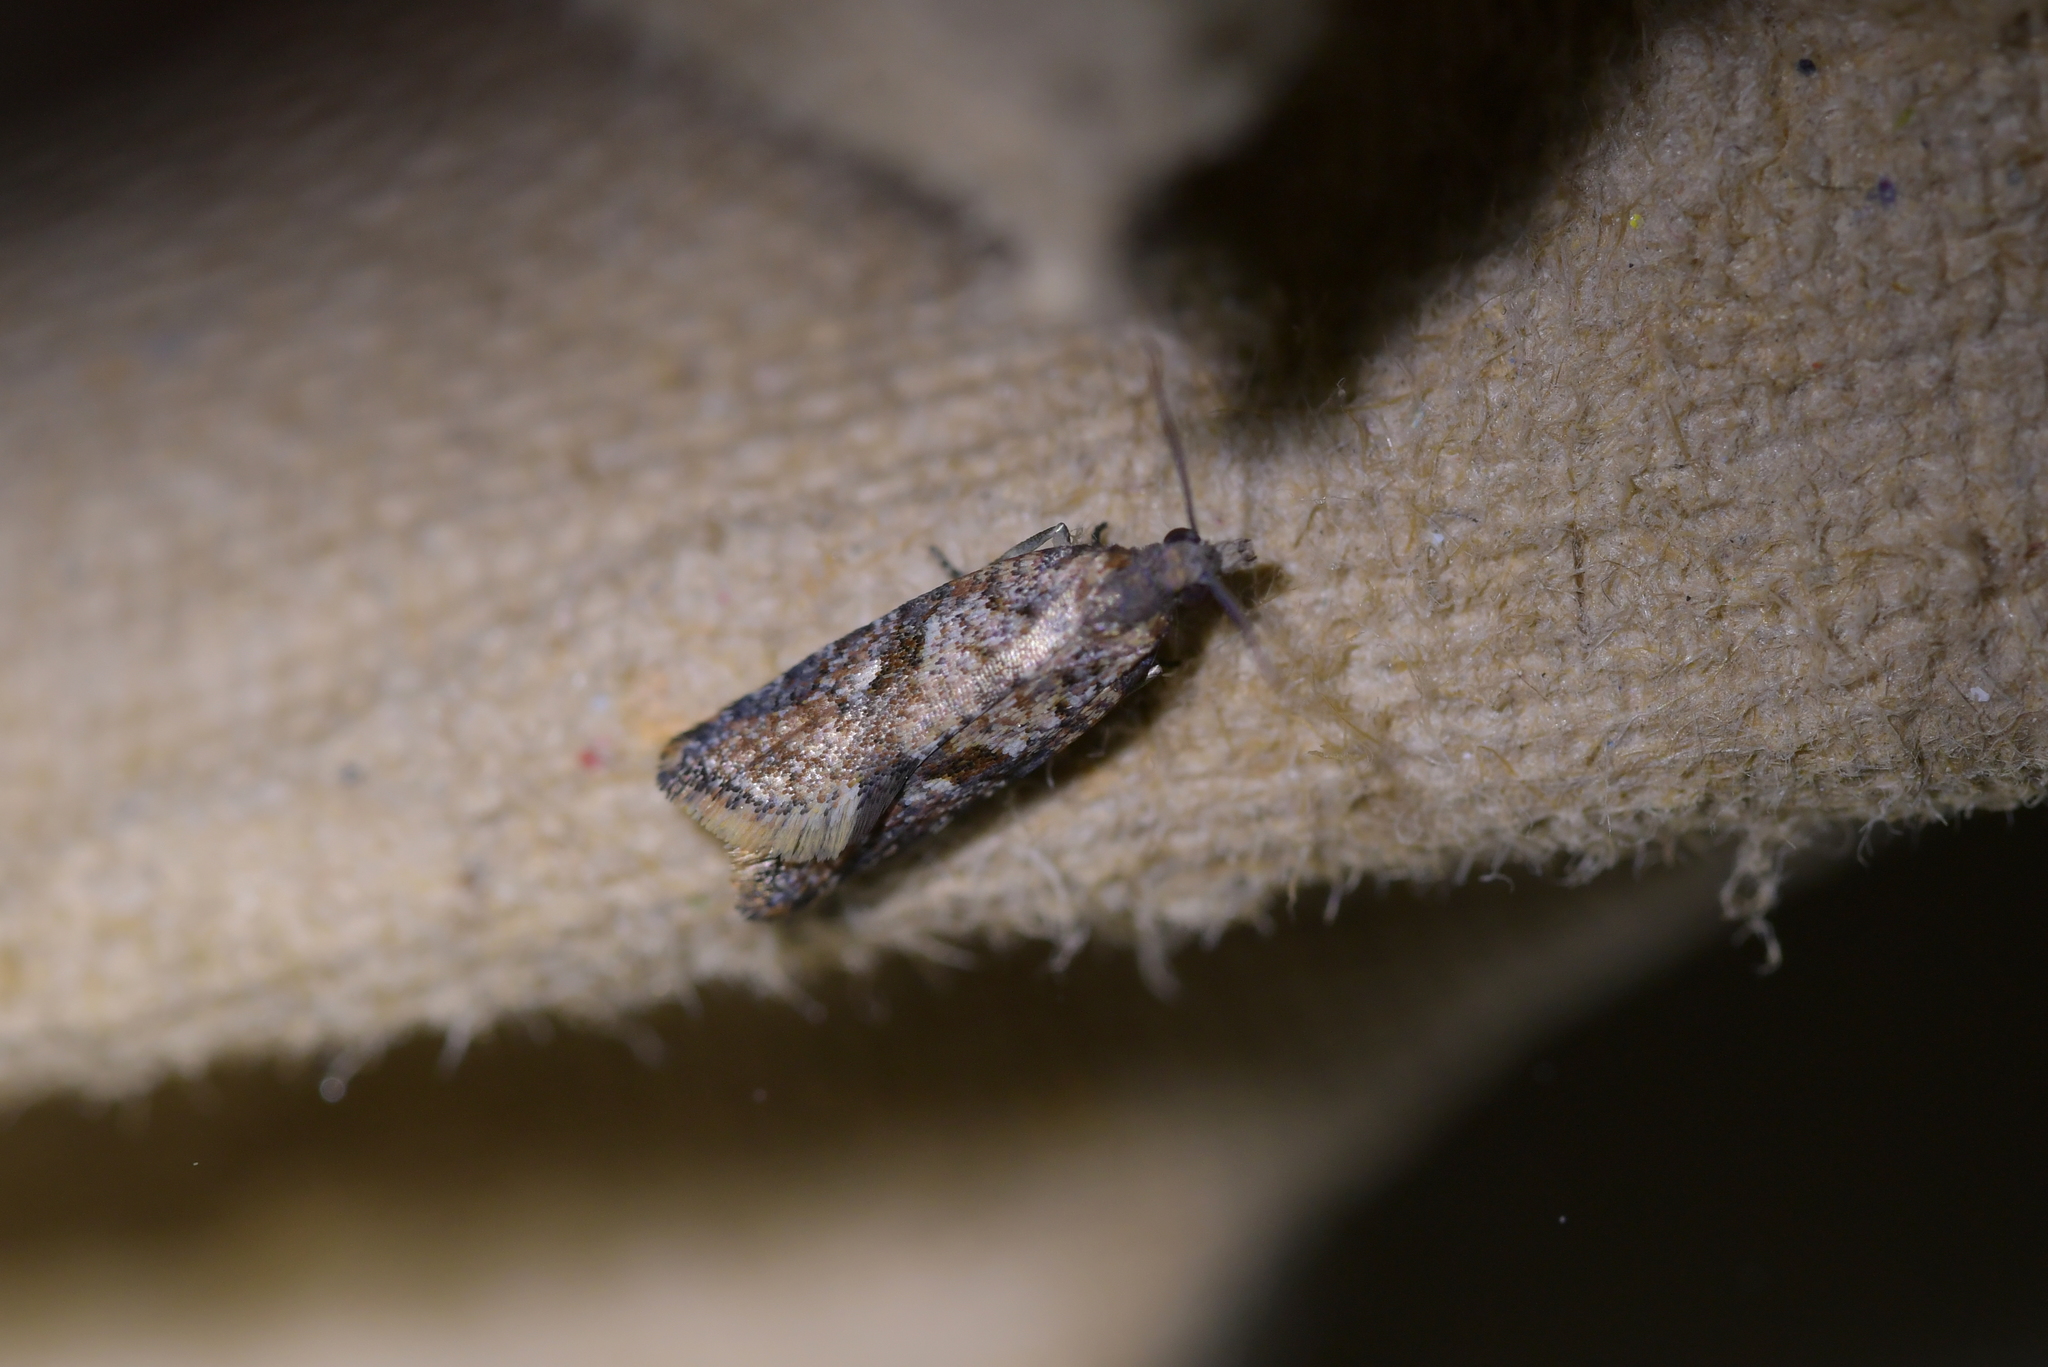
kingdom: Animalia
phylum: Arthropoda
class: Insecta
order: Lepidoptera
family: Tortricidae
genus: Capua
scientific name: Capua semiferana
